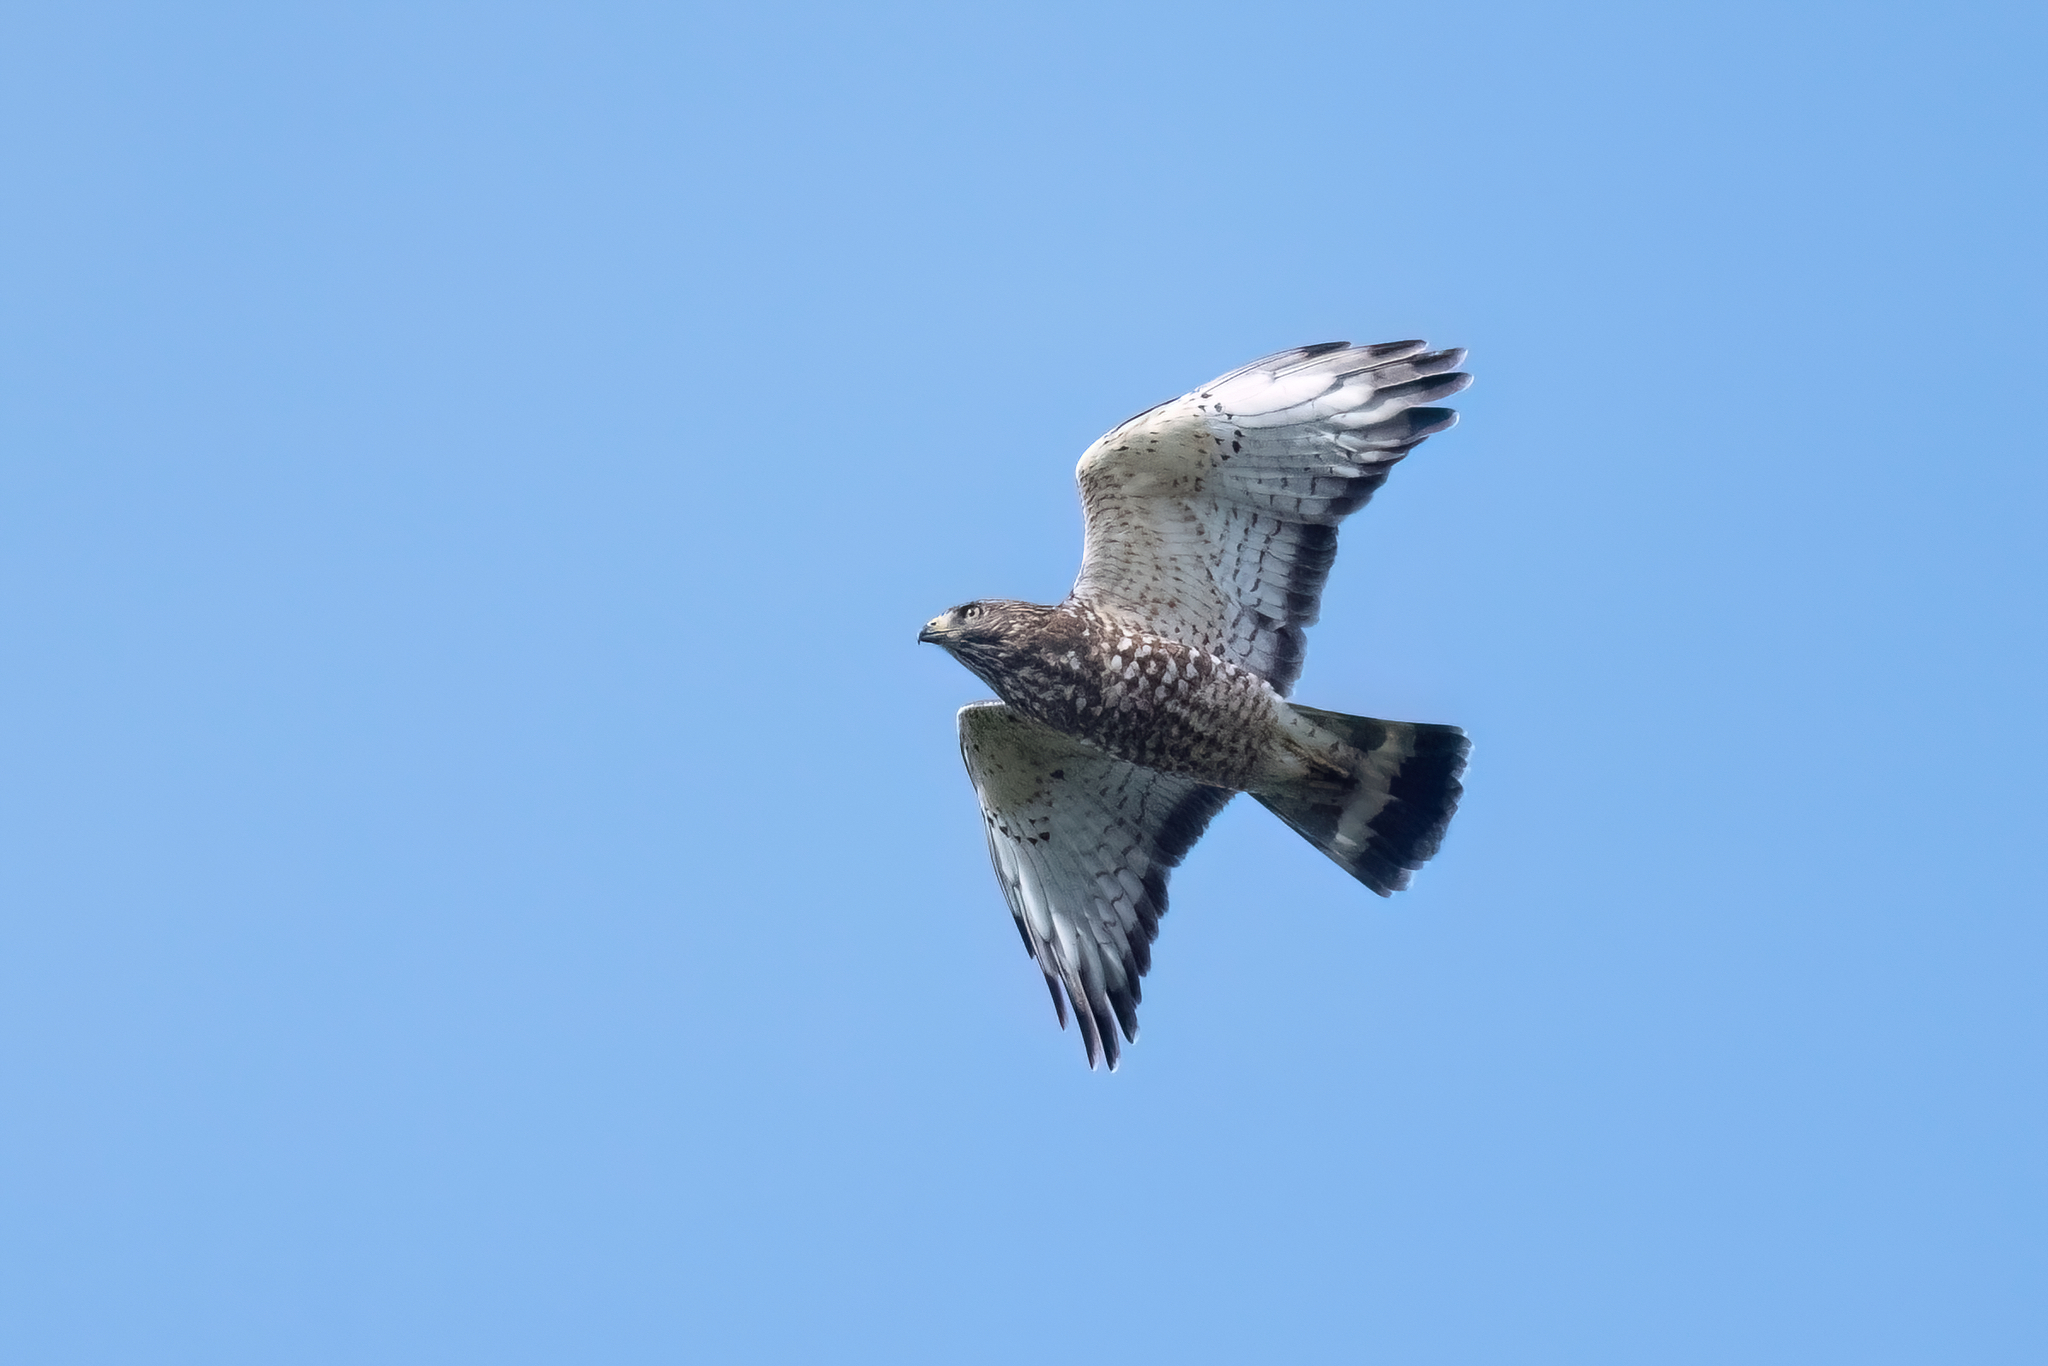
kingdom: Animalia
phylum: Chordata
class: Aves
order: Accipitriformes
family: Accipitridae
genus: Buteo
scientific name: Buteo platypterus
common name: Broad-winged hawk
